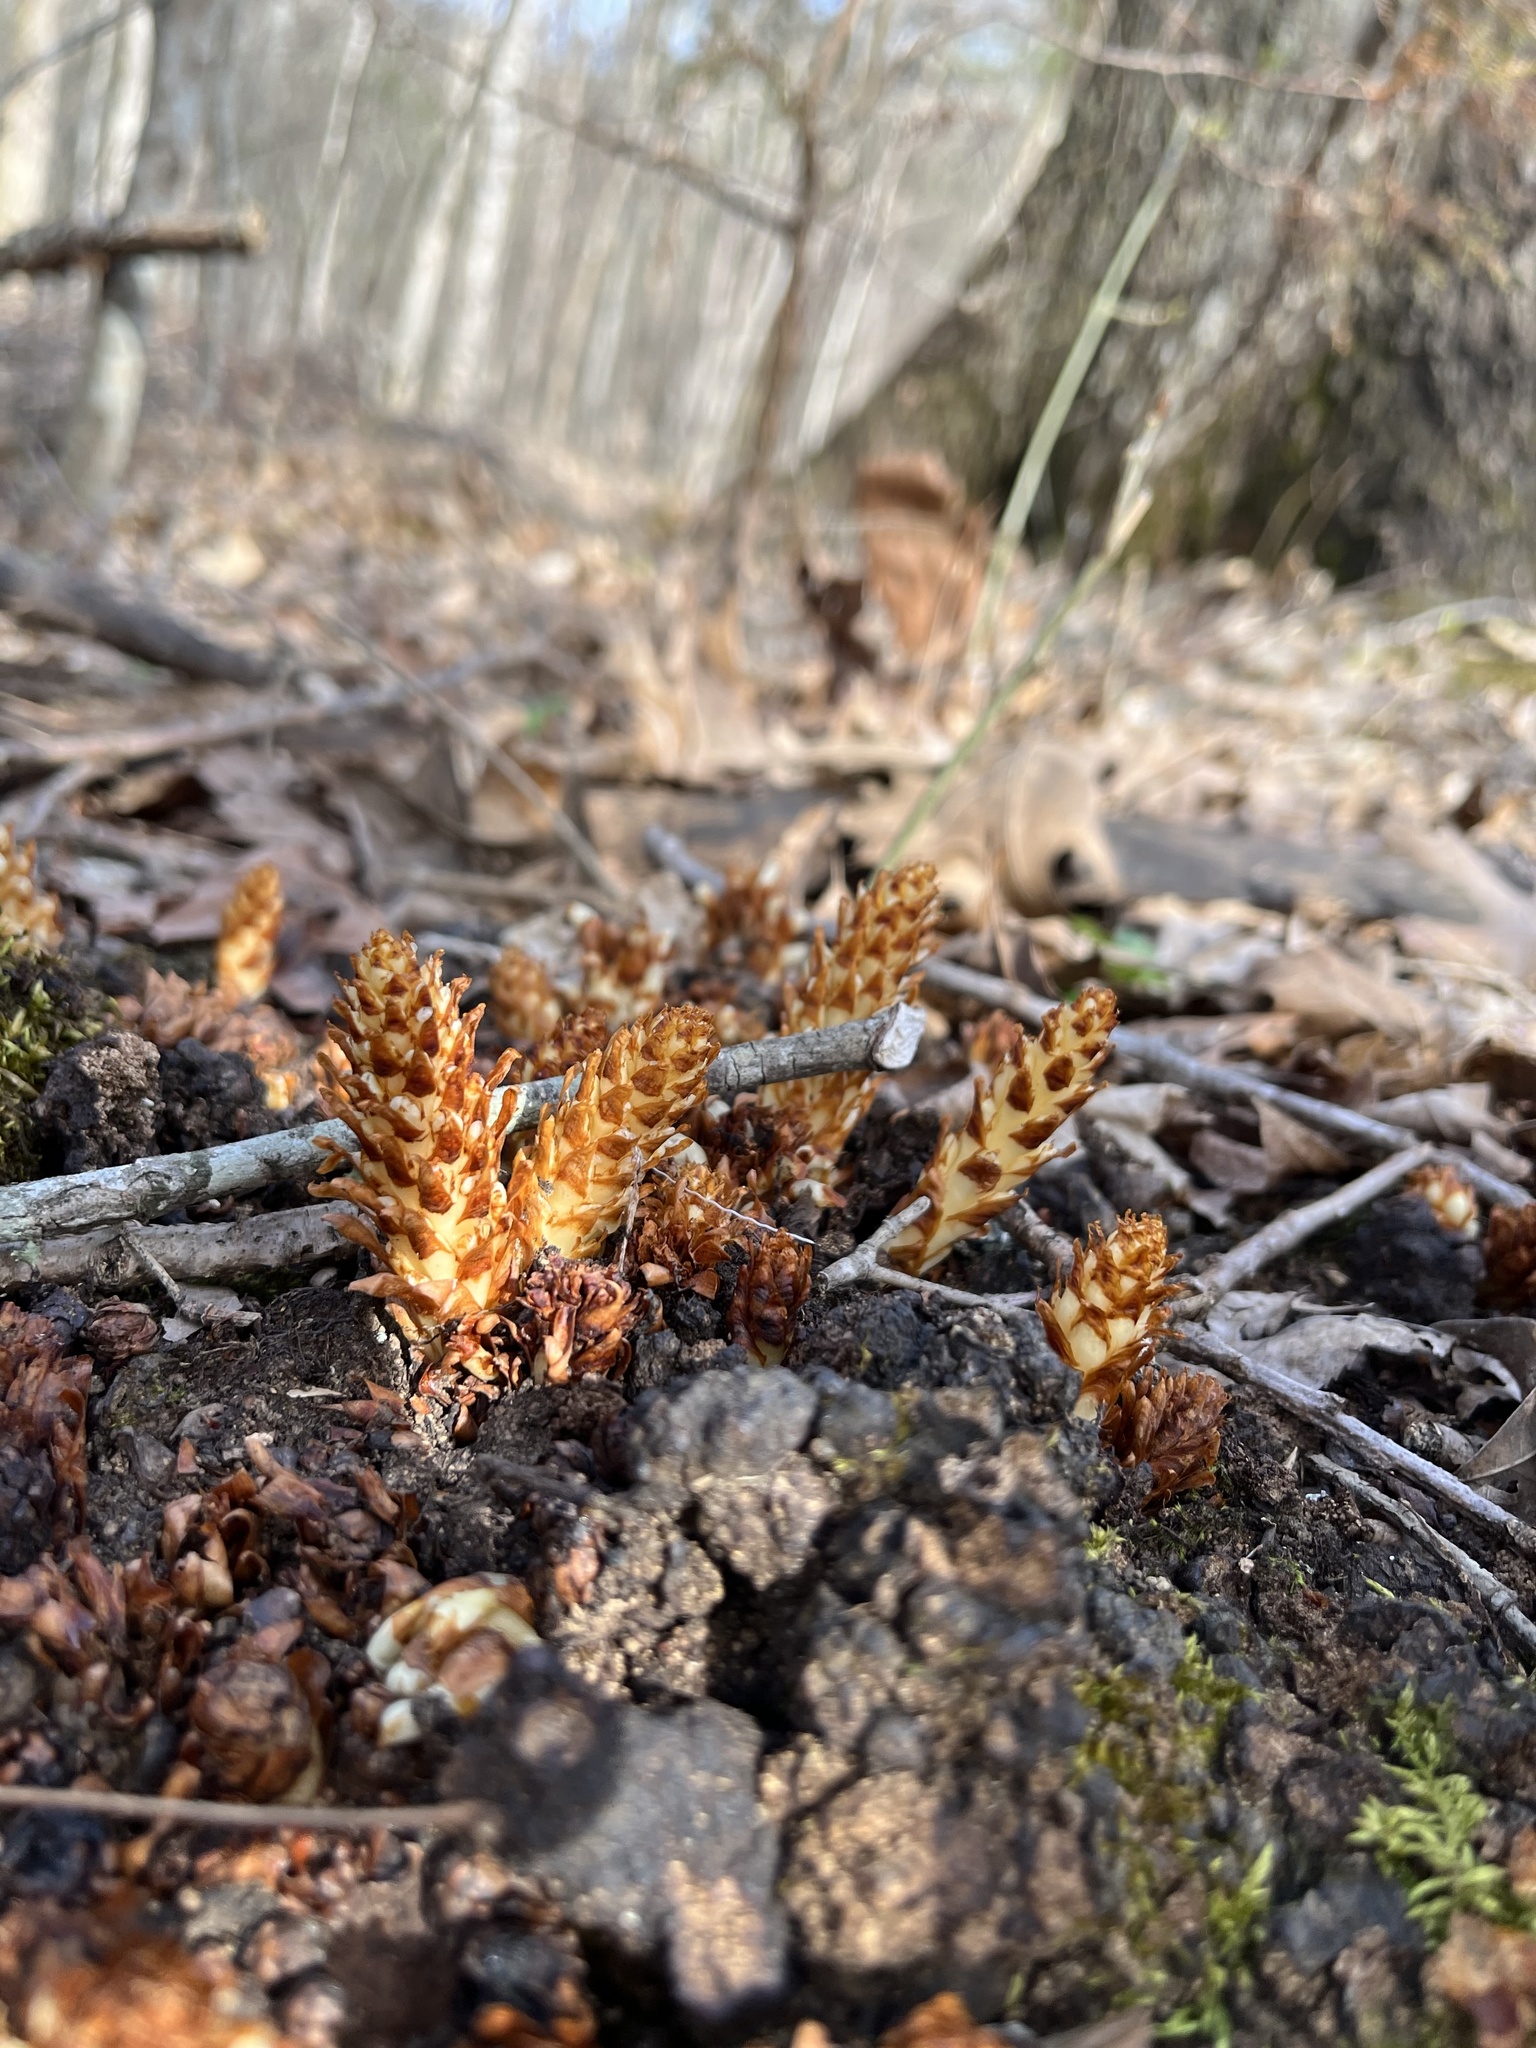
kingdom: Plantae
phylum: Tracheophyta
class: Magnoliopsida
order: Lamiales
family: Orobanchaceae
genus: Conopholis
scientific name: Conopholis americana
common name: American cancer-root
